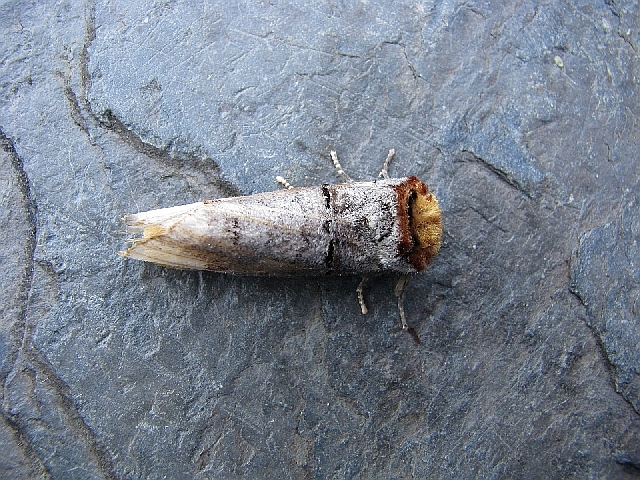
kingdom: Animalia
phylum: Arthropoda
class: Insecta
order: Lepidoptera
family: Notodontidae
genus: Phalera
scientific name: Phalera bucephala
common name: Buff-tip
